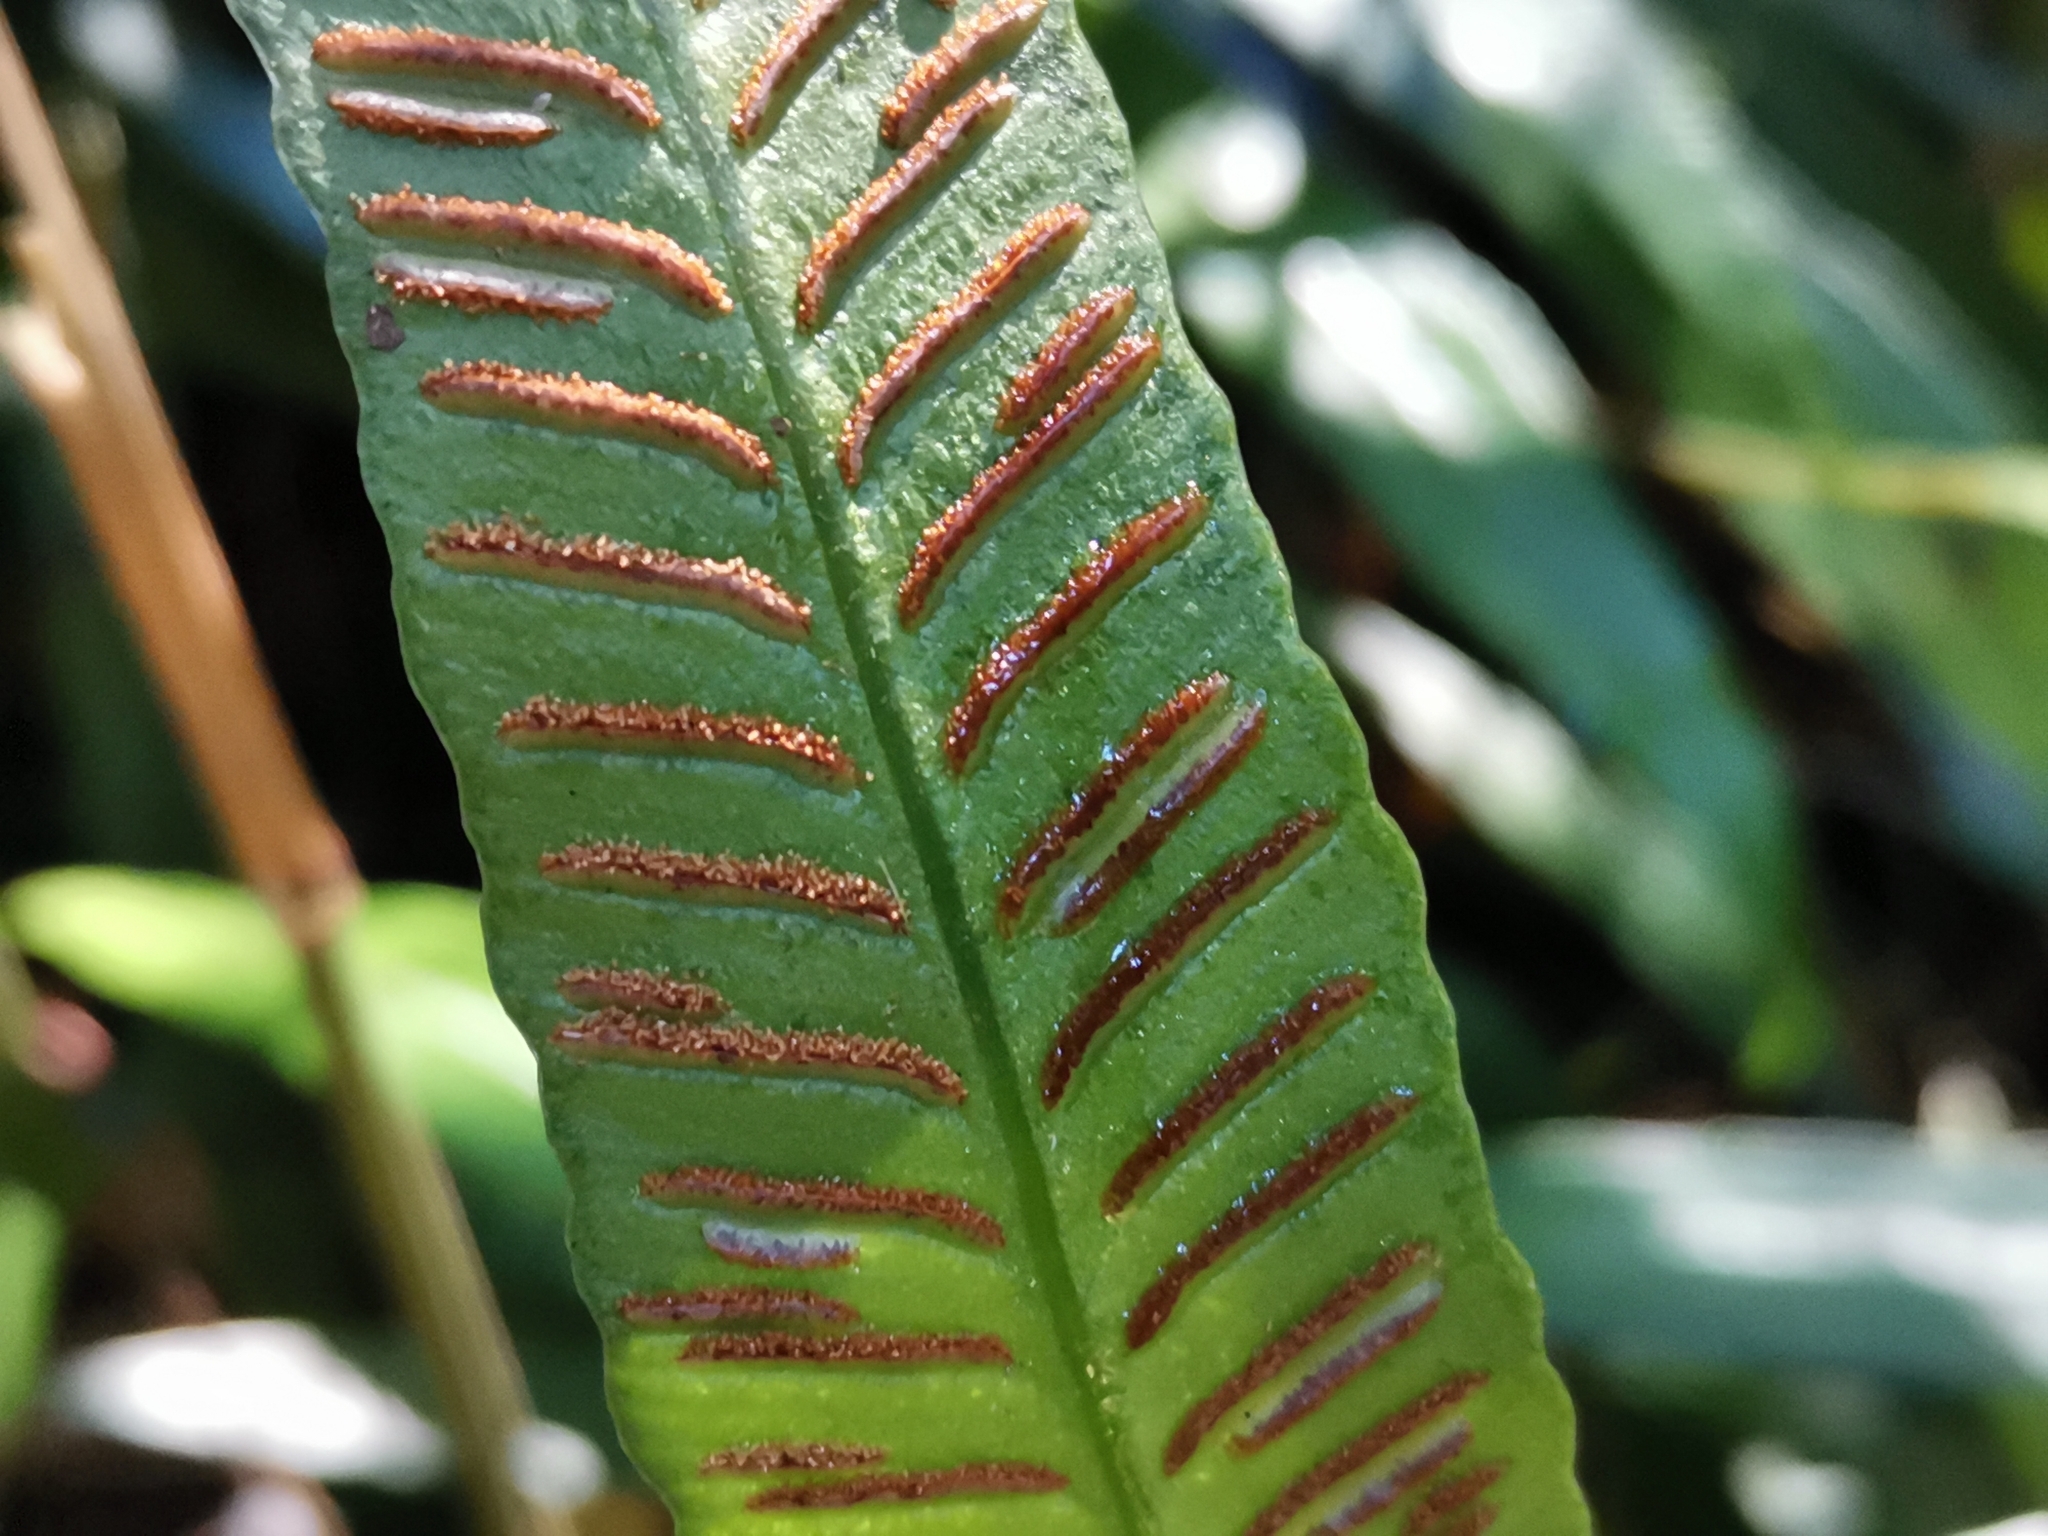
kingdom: Plantae
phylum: Tracheophyta
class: Polypodiopsida
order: Polypodiales
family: Athyriaceae
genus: Deparia
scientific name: Deparia lancea
